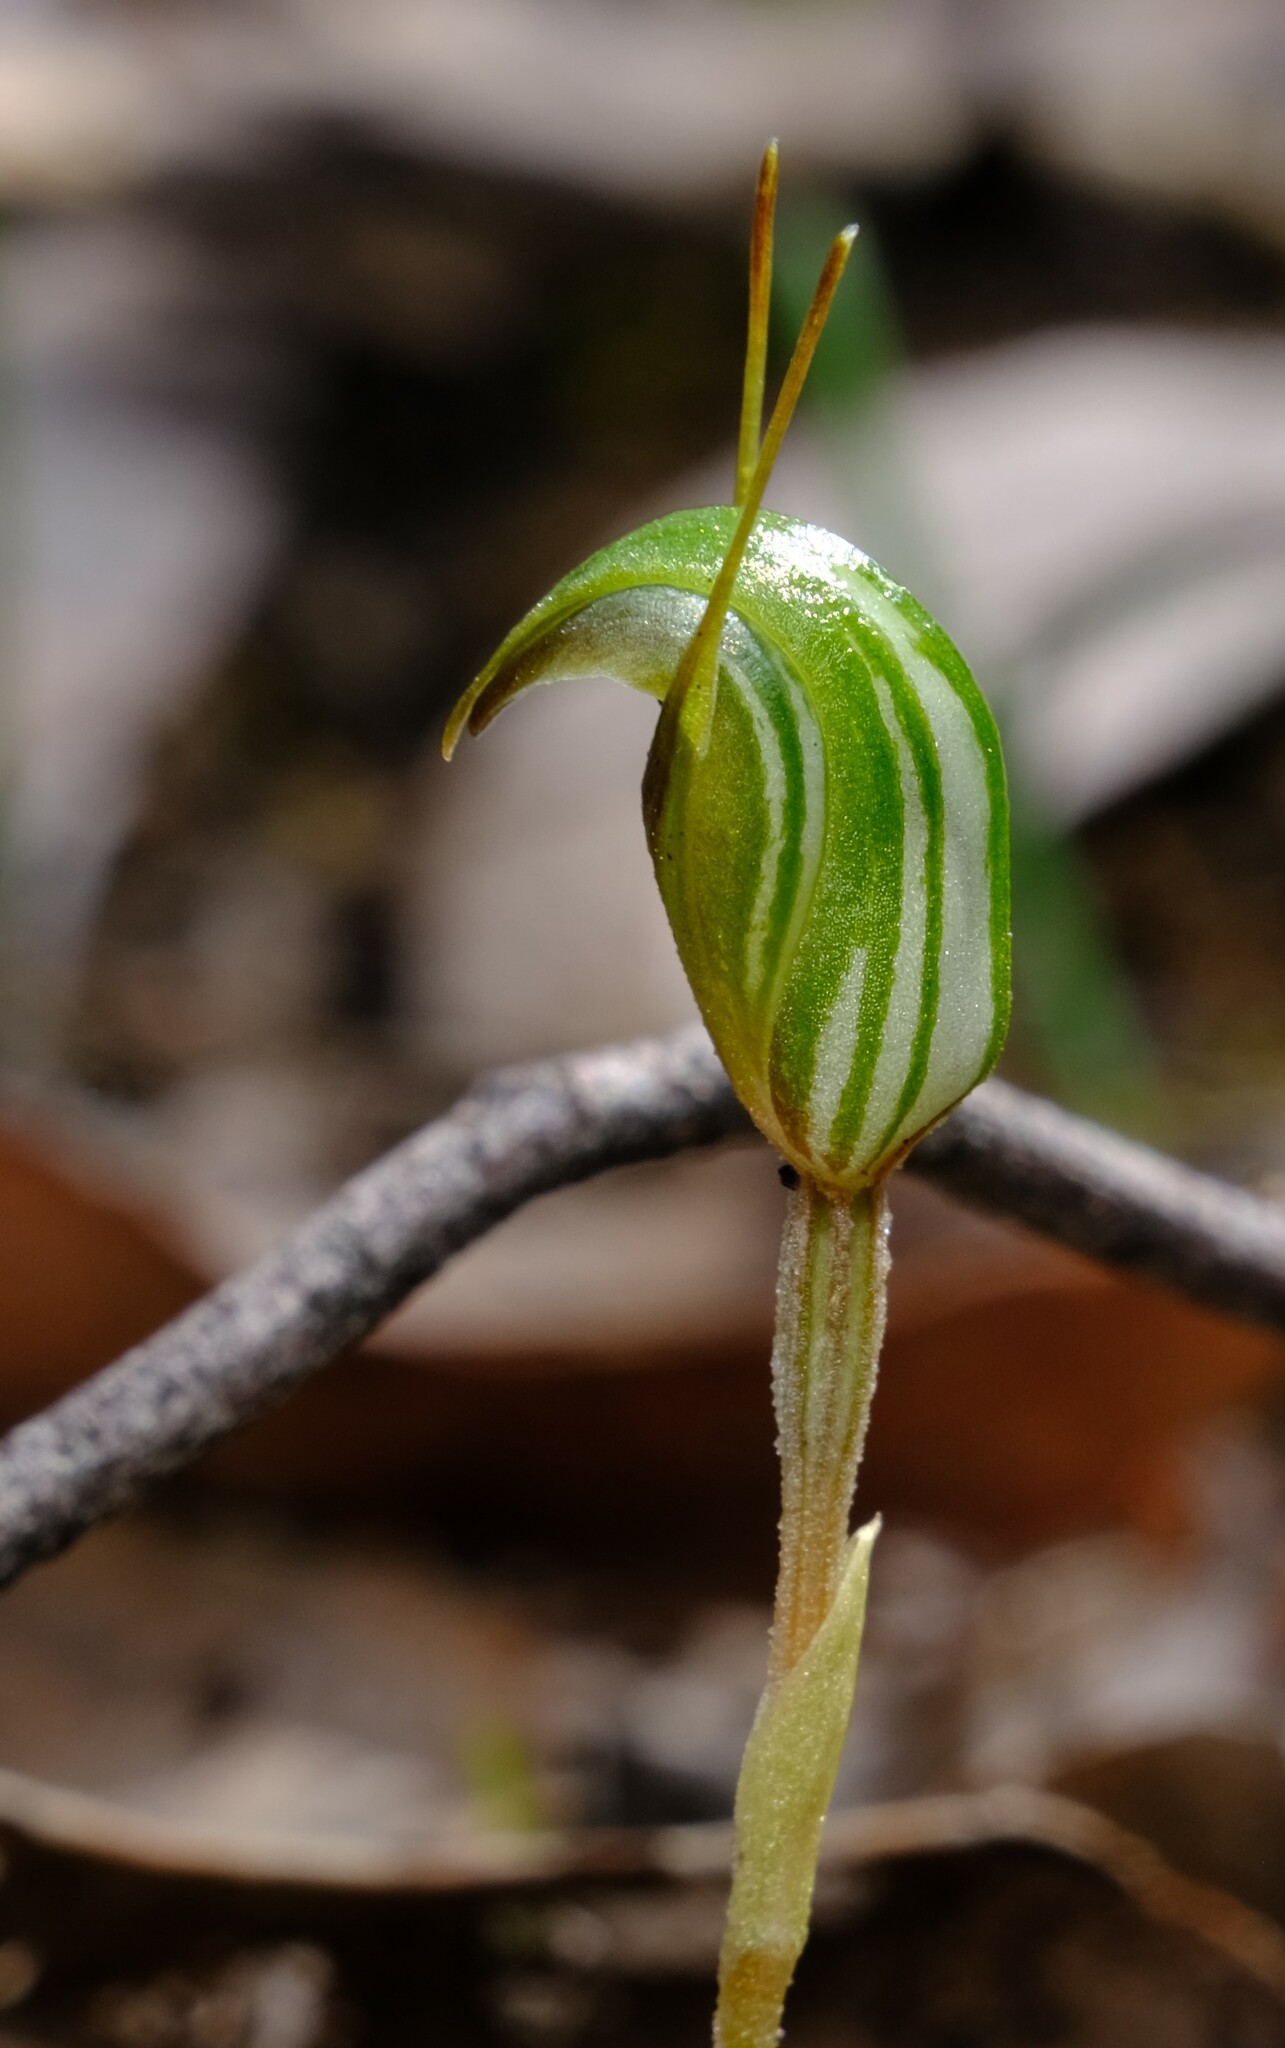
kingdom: Plantae
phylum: Tracheophyta
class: Liliopsida
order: Asparagales
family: Orchidaceae
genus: Pterostylis
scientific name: Pterostylis concinna
